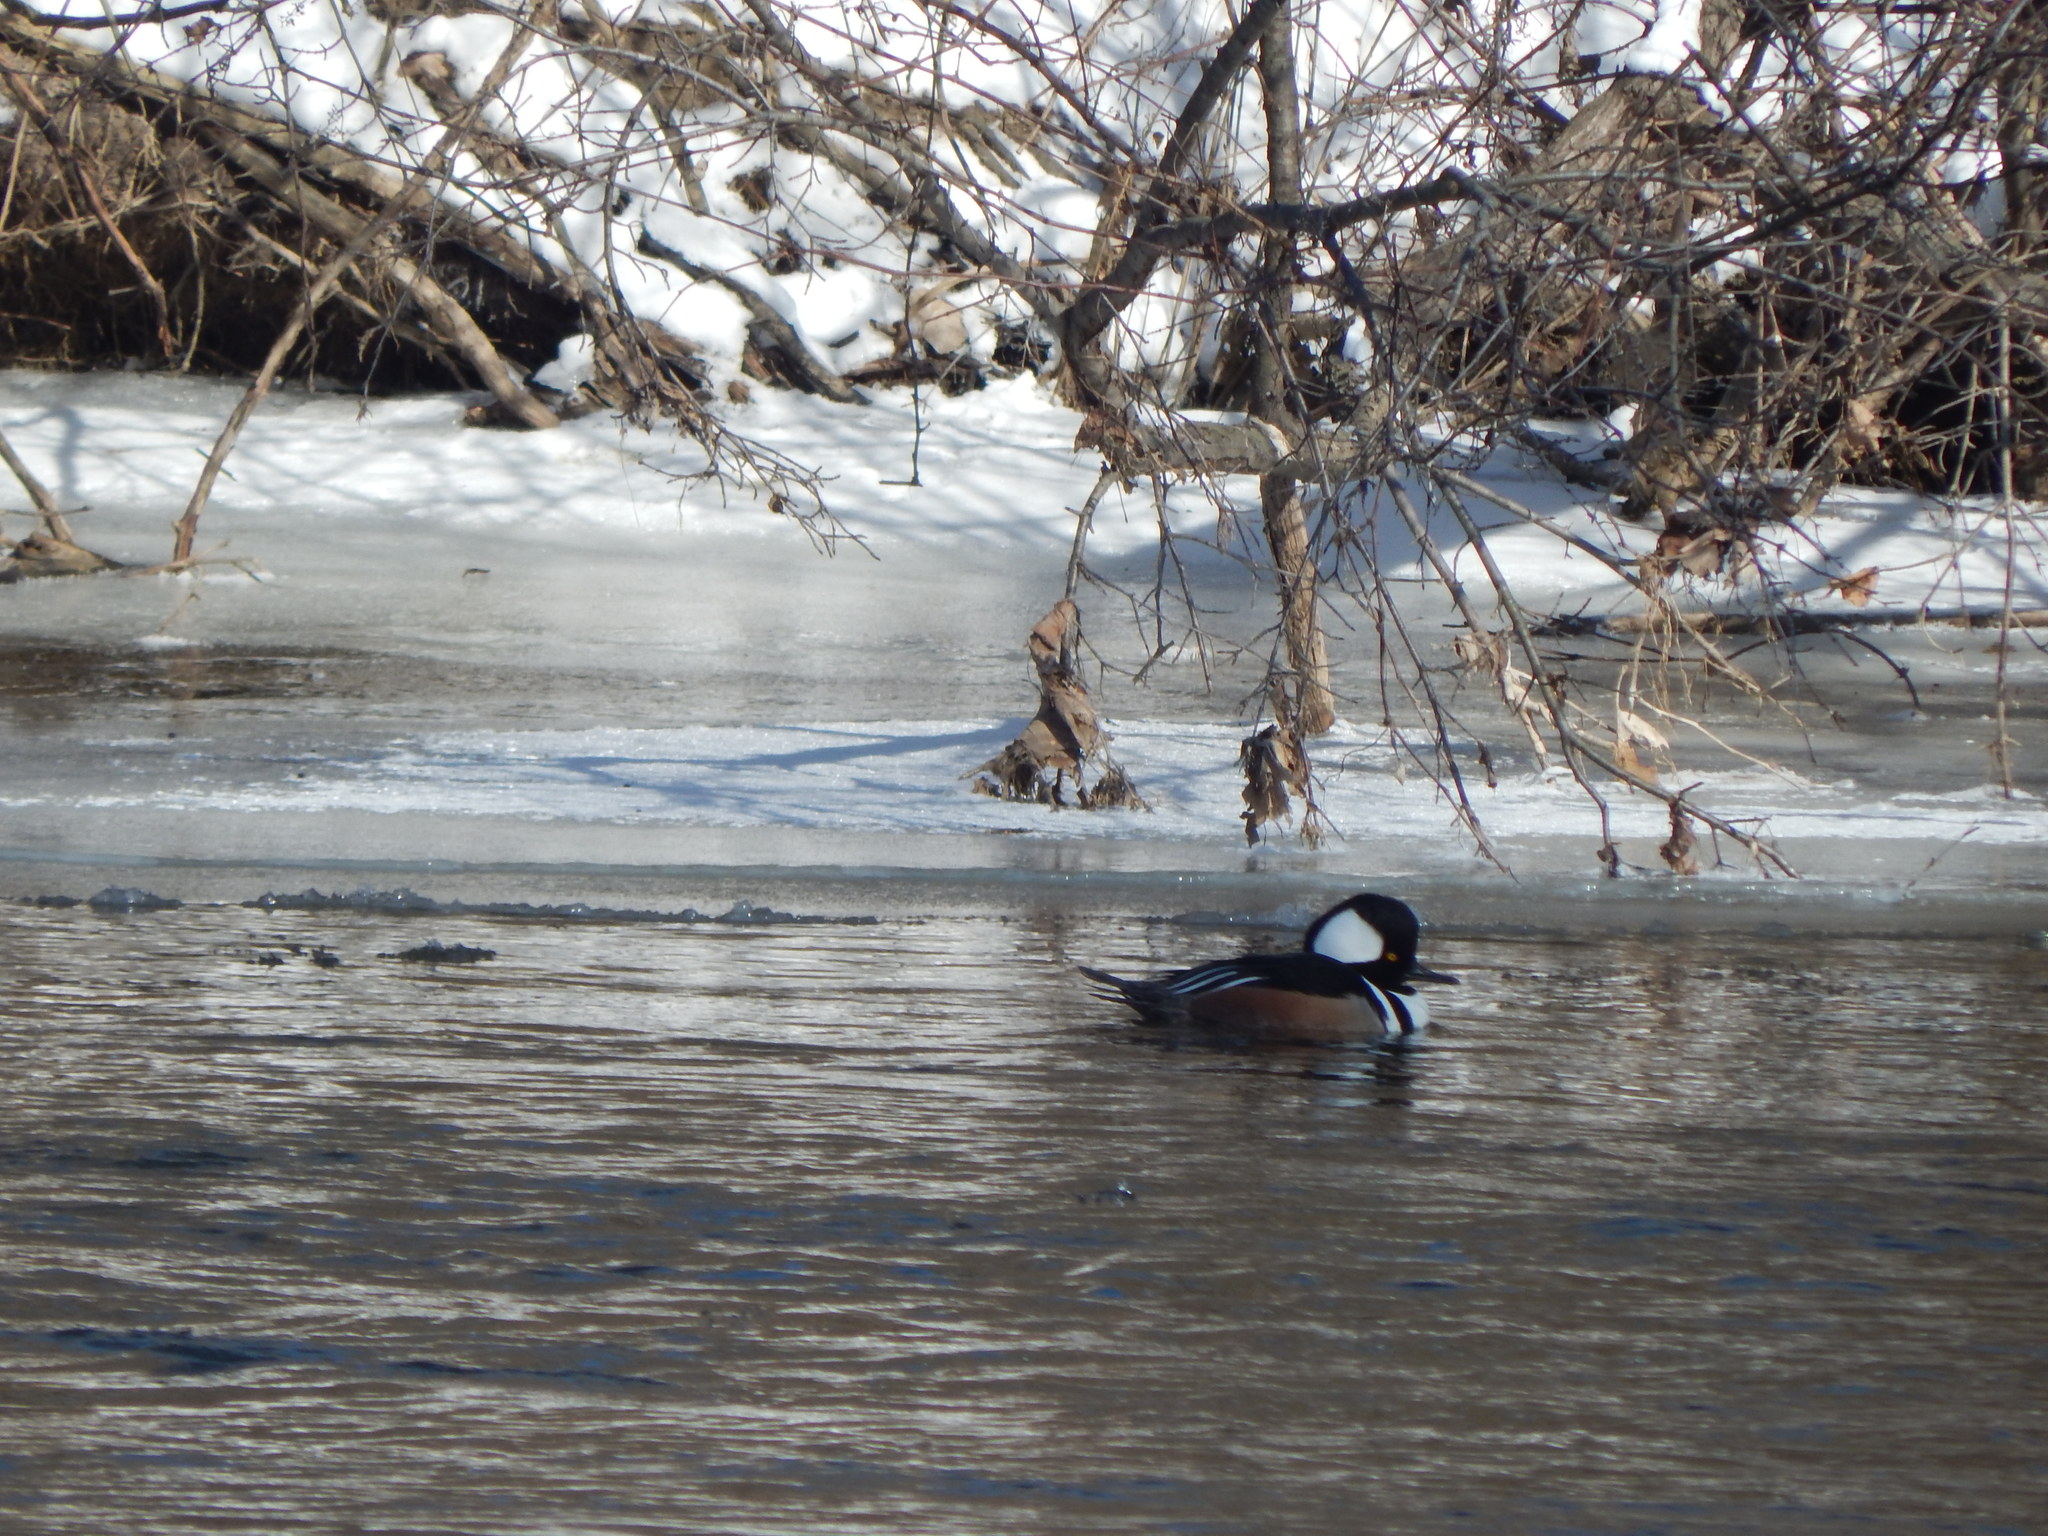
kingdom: Animalia
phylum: Chordata
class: Aves
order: Anseriformes
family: Anatidae
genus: Lophodytes
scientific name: Lophodytes cucullatus
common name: Hooded merganser
